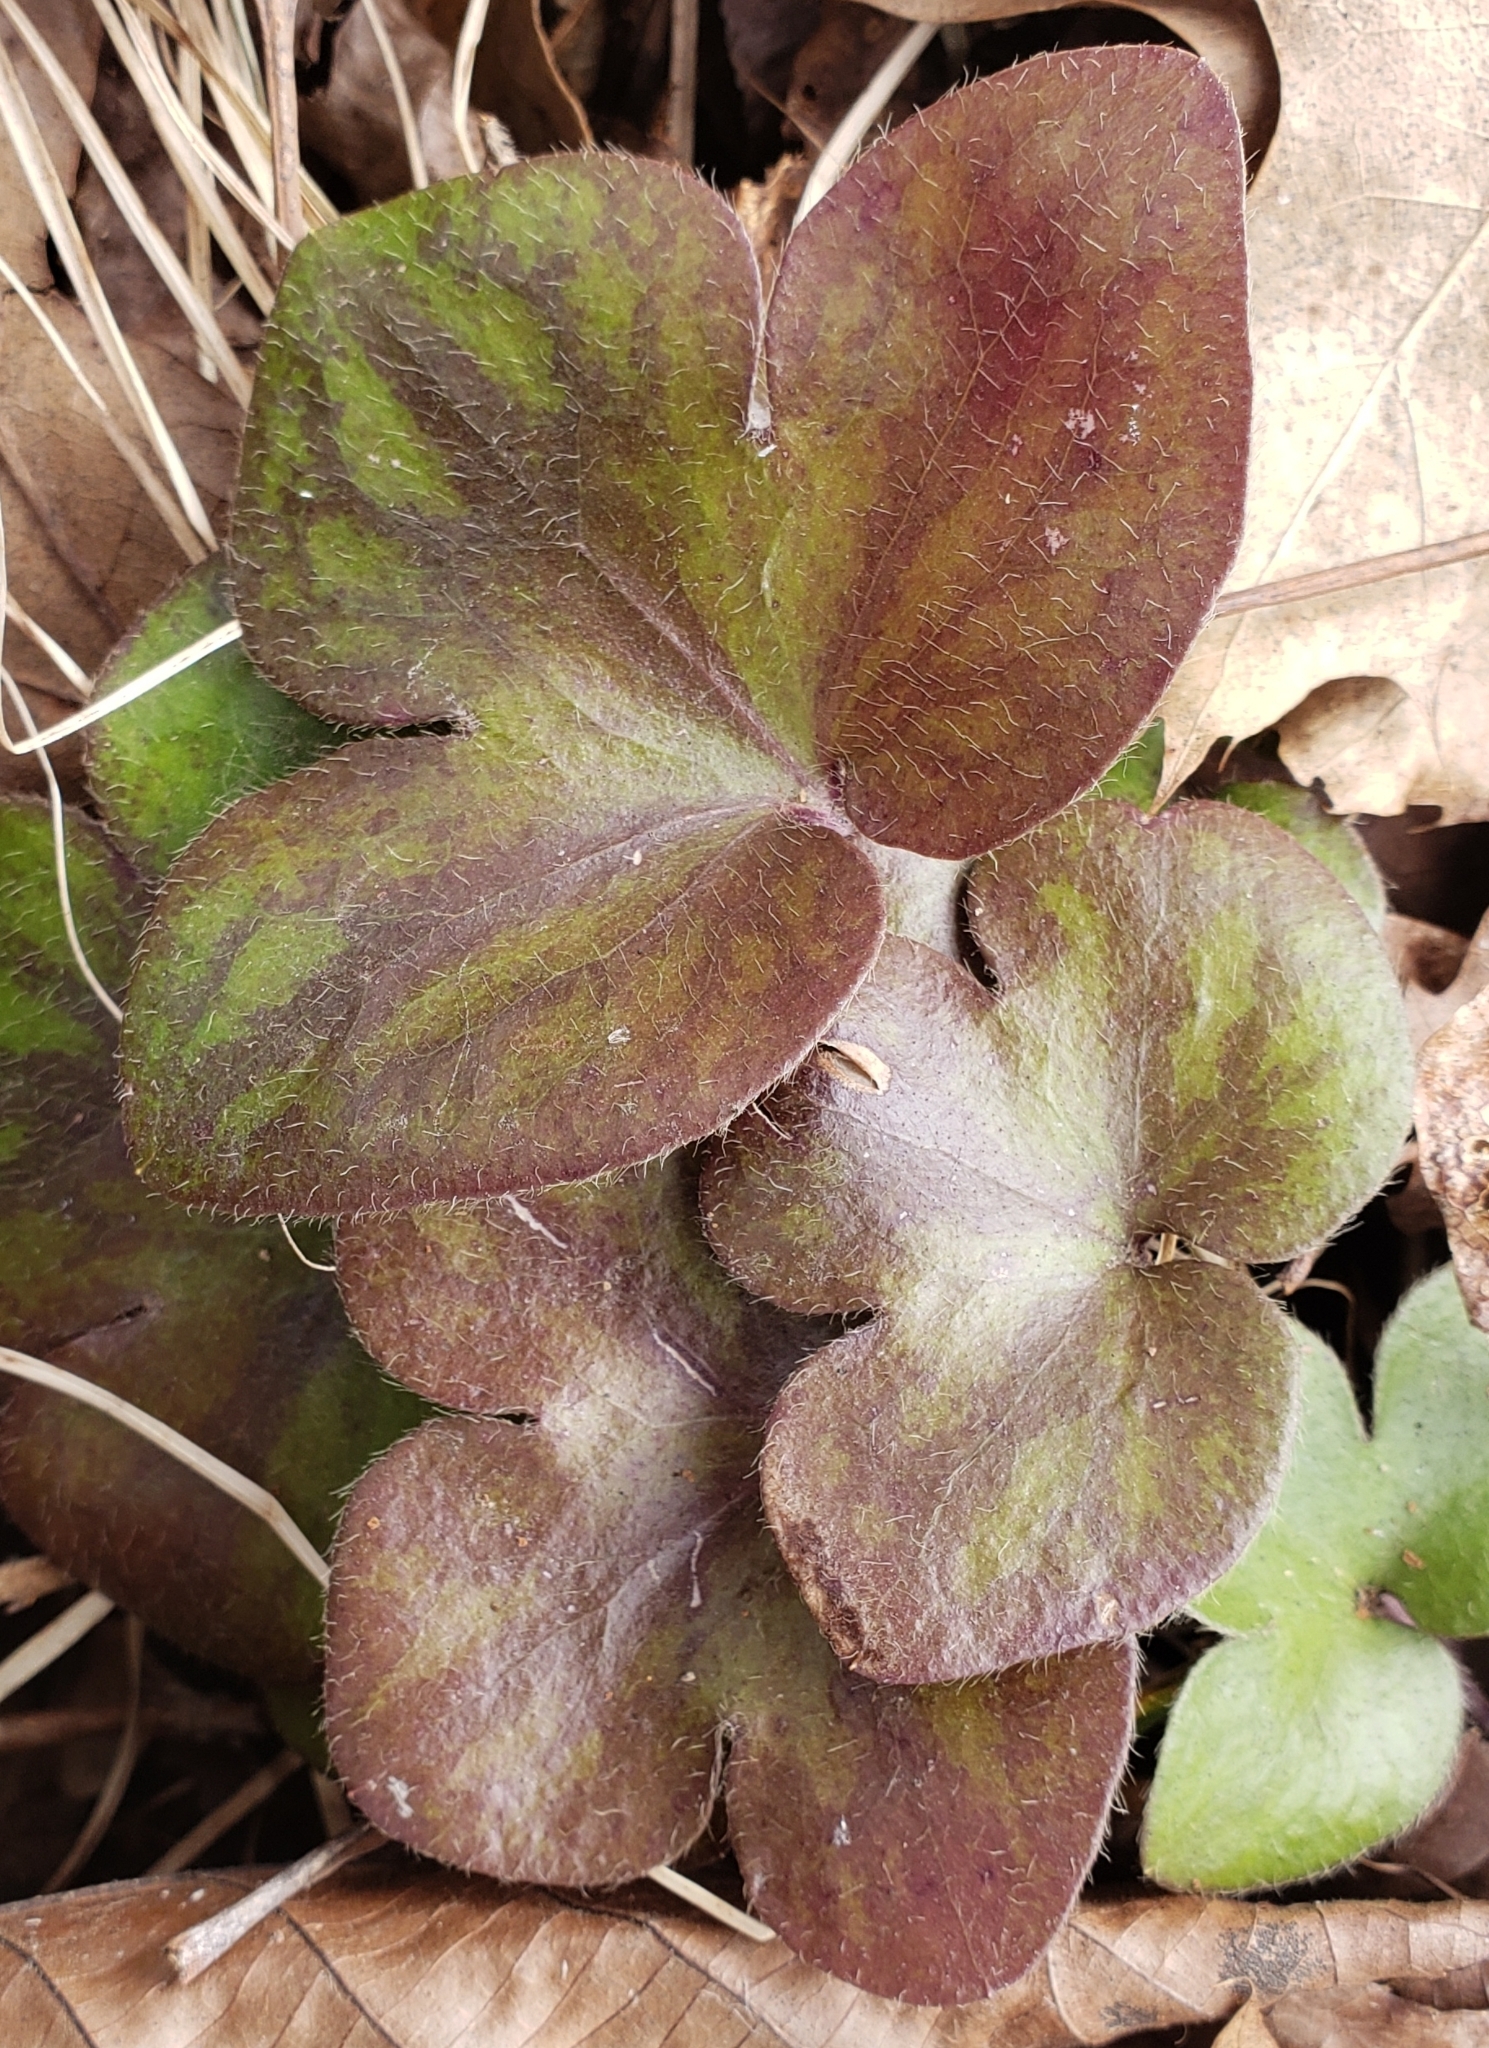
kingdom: Plantae
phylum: Tracheophyta
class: Magnoliopsida
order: Ranunculales
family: Ranunculaceae
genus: Hepatica
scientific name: Hepatica americana
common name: American hepatica
